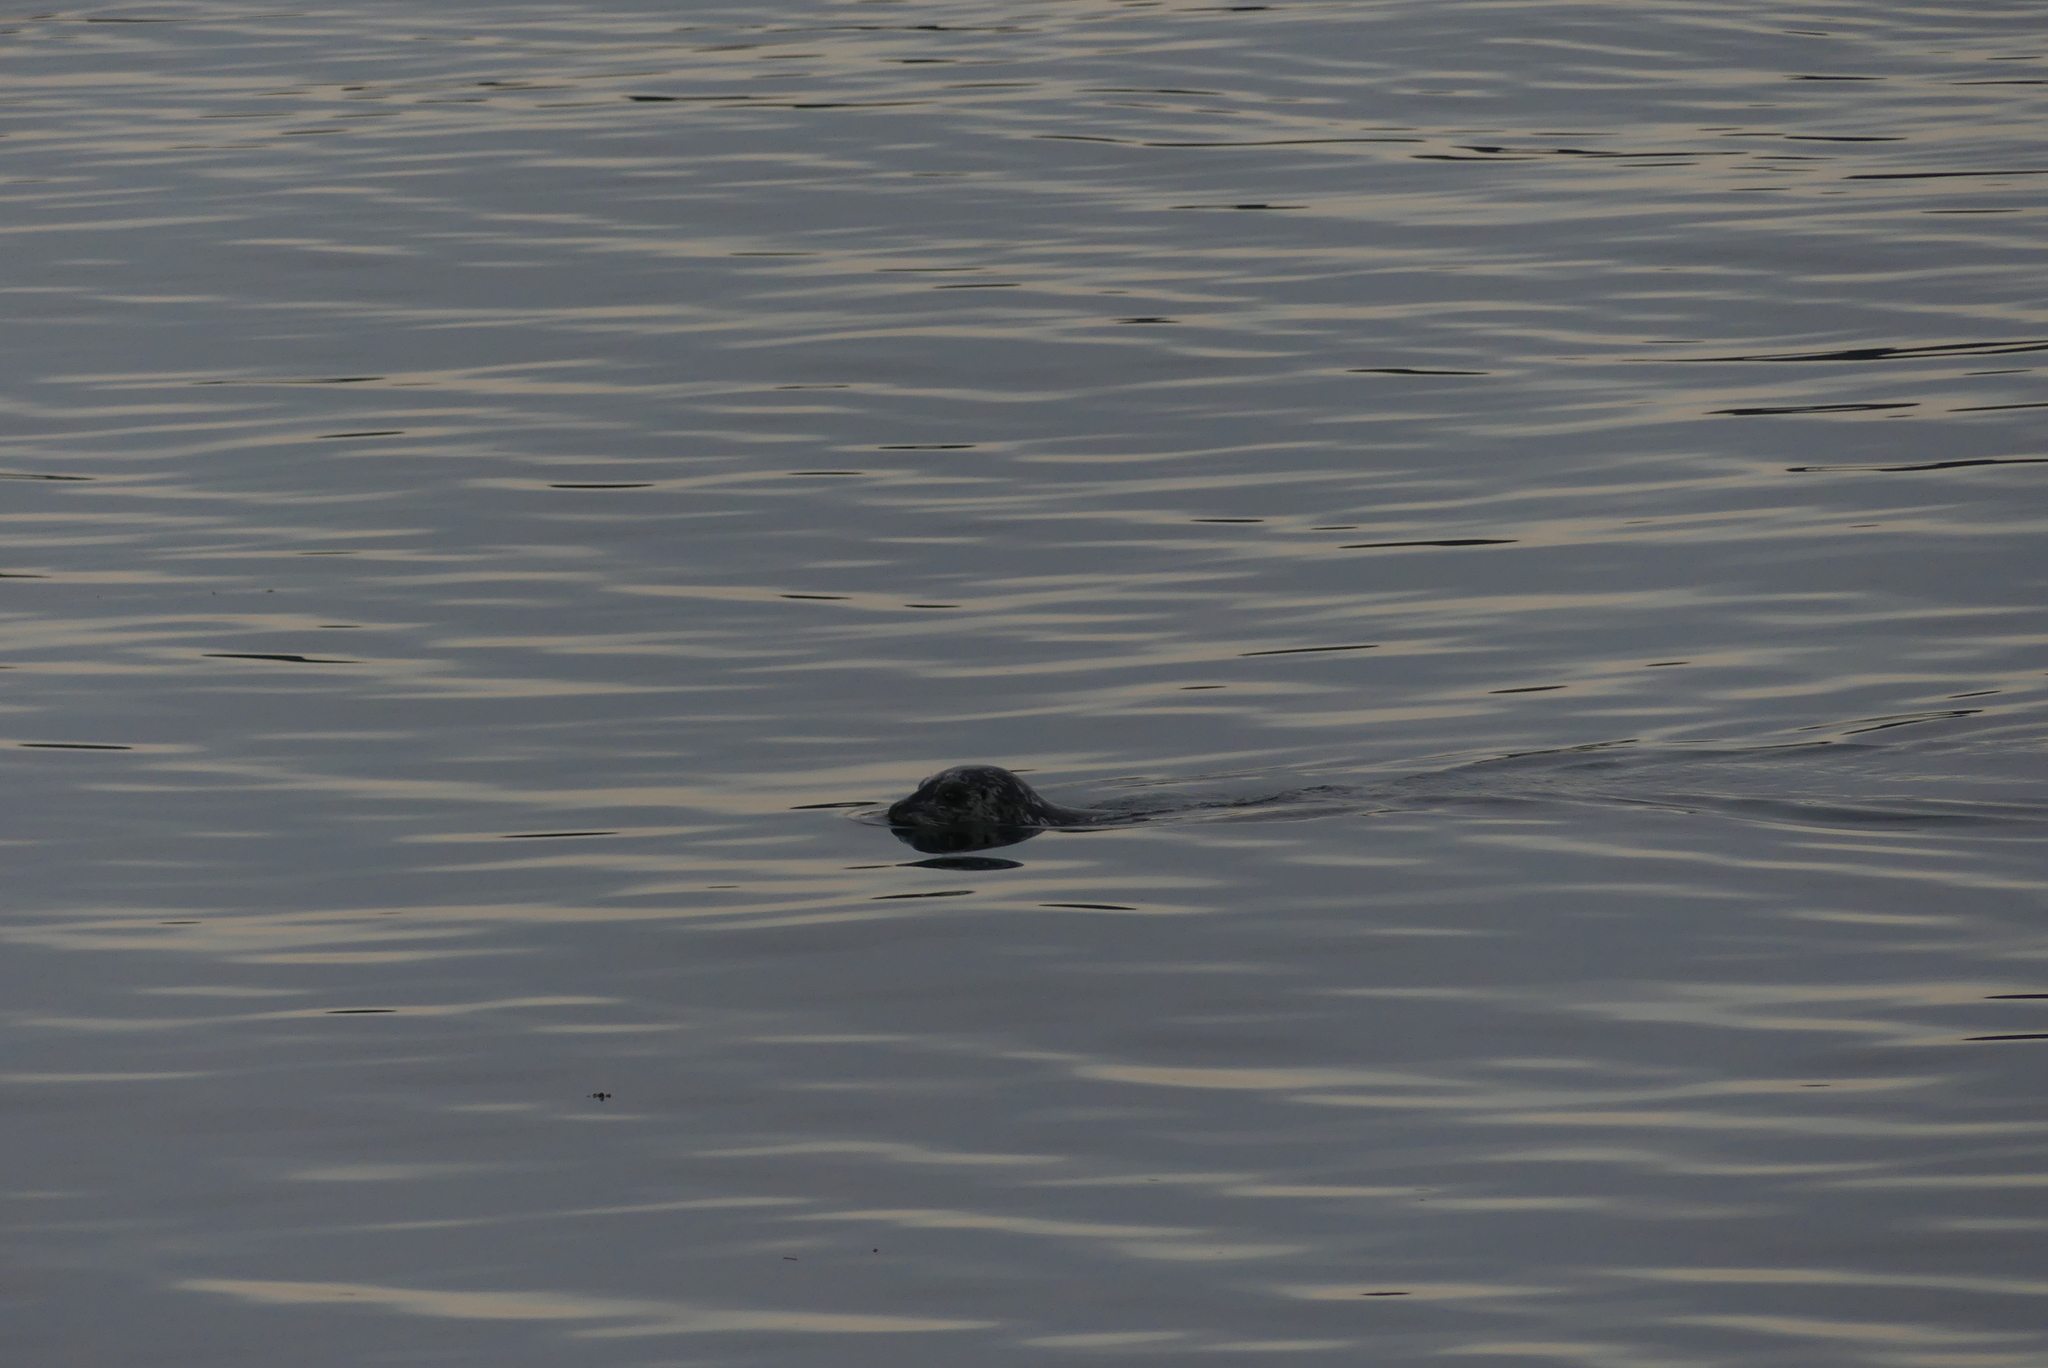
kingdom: Animalia
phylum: Chordata
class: Mammalia
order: Carnivora
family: Phocidae
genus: Phoca
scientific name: Phoca vitulina
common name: Harbor seal
